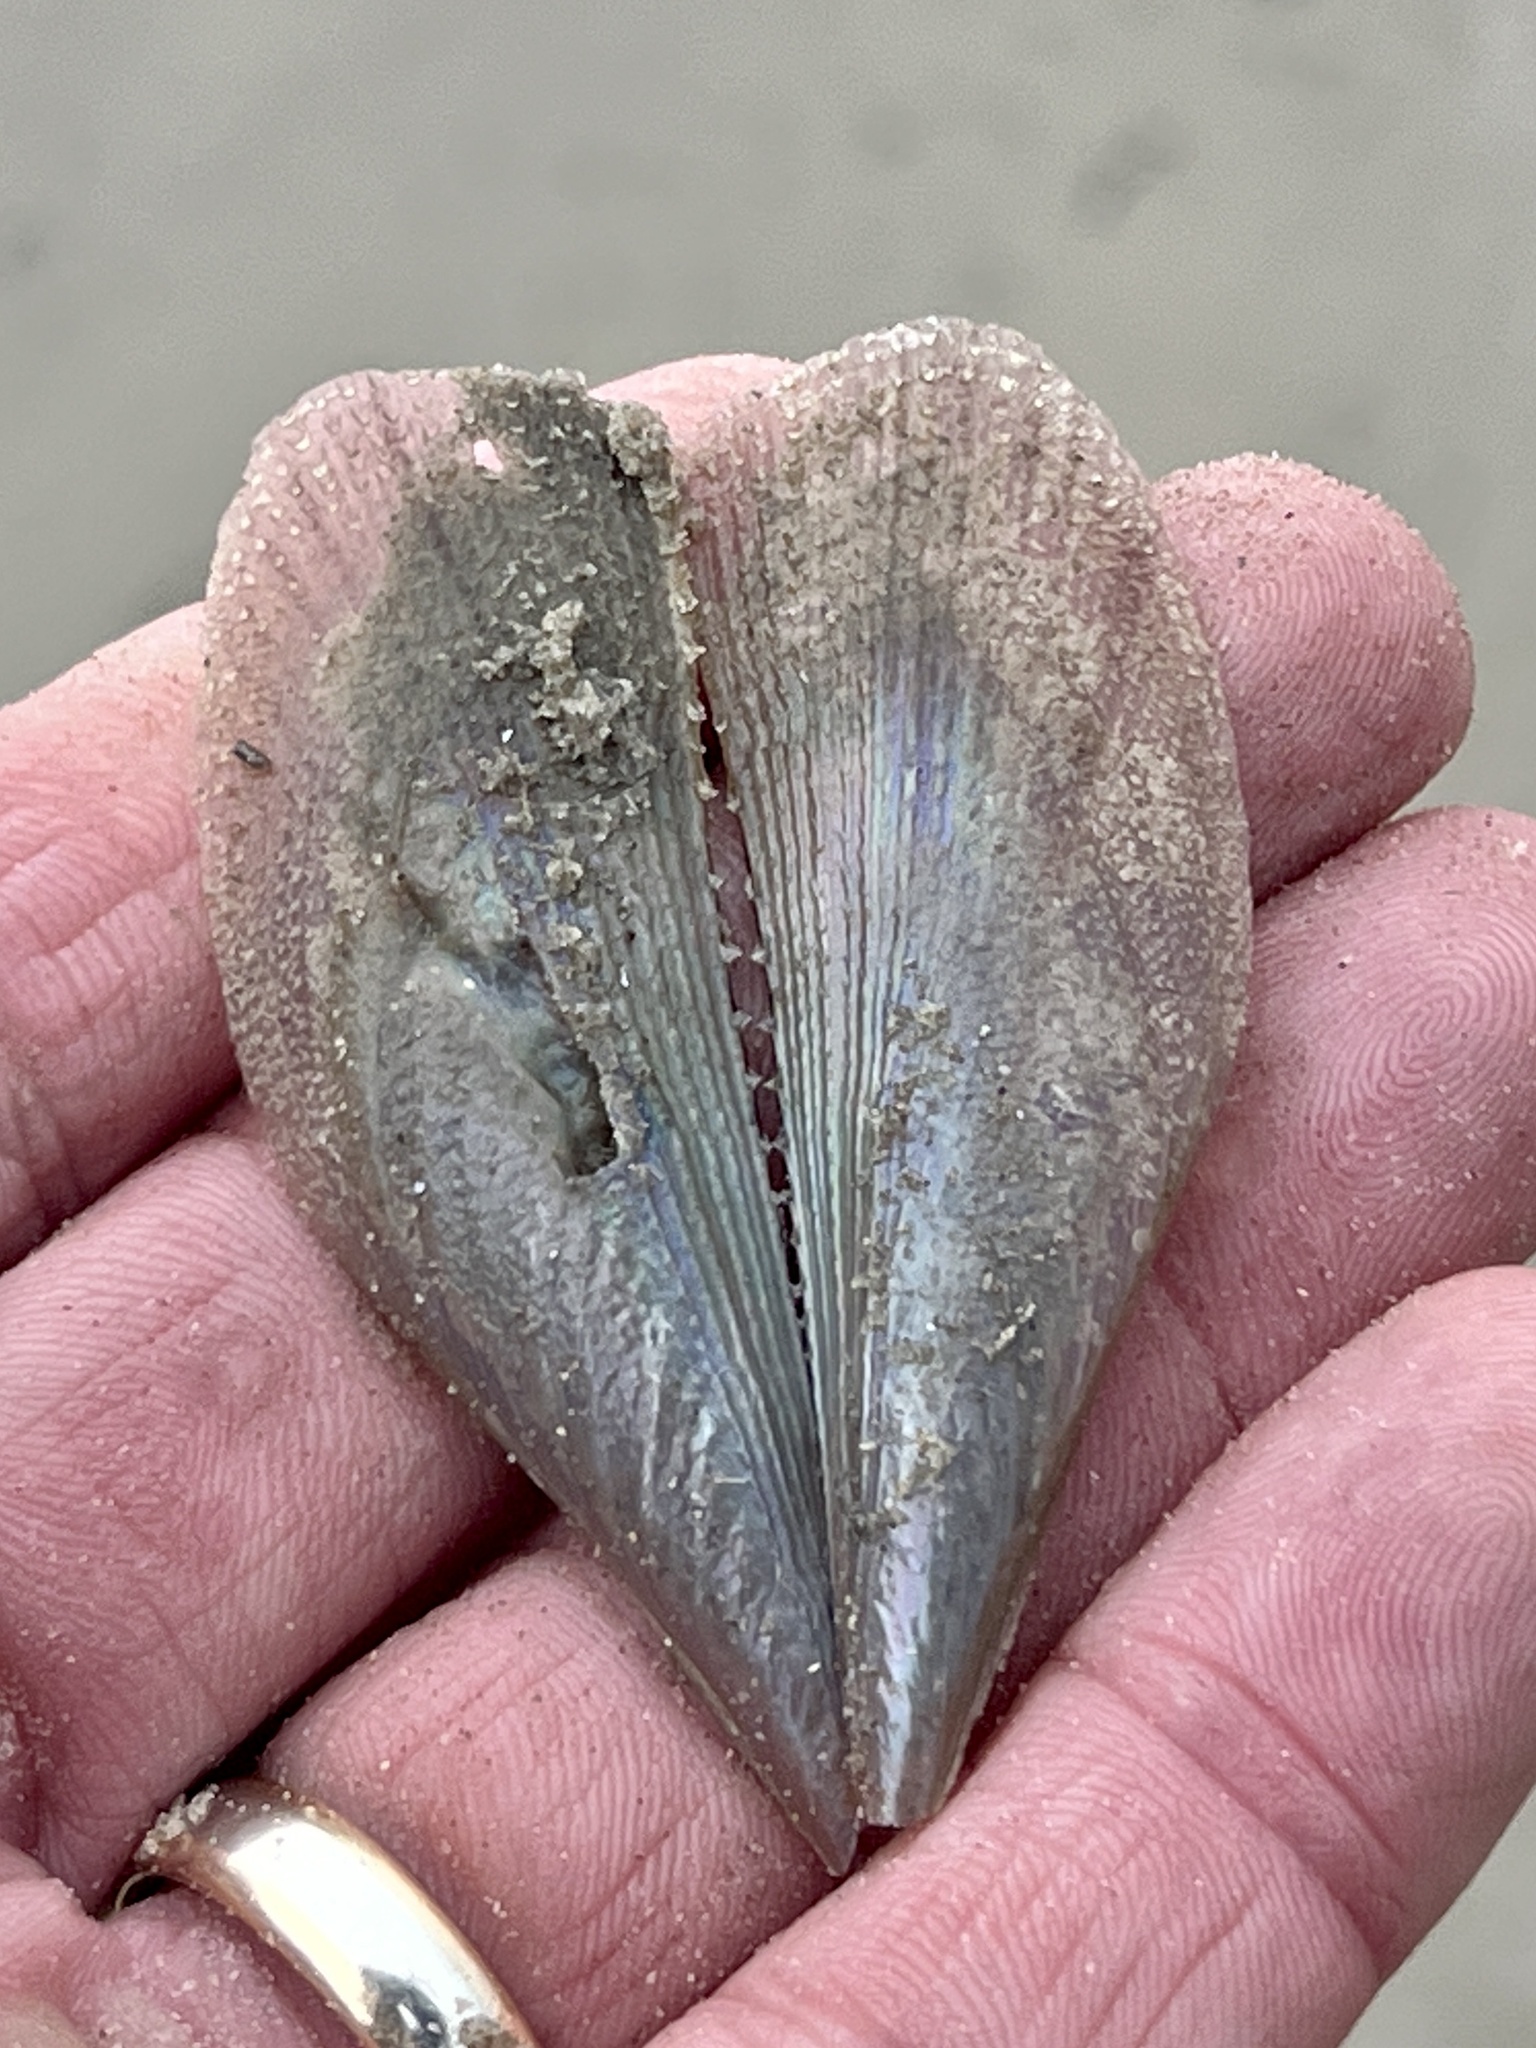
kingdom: Animalia
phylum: Mollusca
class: Bivalvia
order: Ostreida
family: Pinnidae
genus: Atrina
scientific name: Atrina serrata
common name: Saw-toothed penshell
